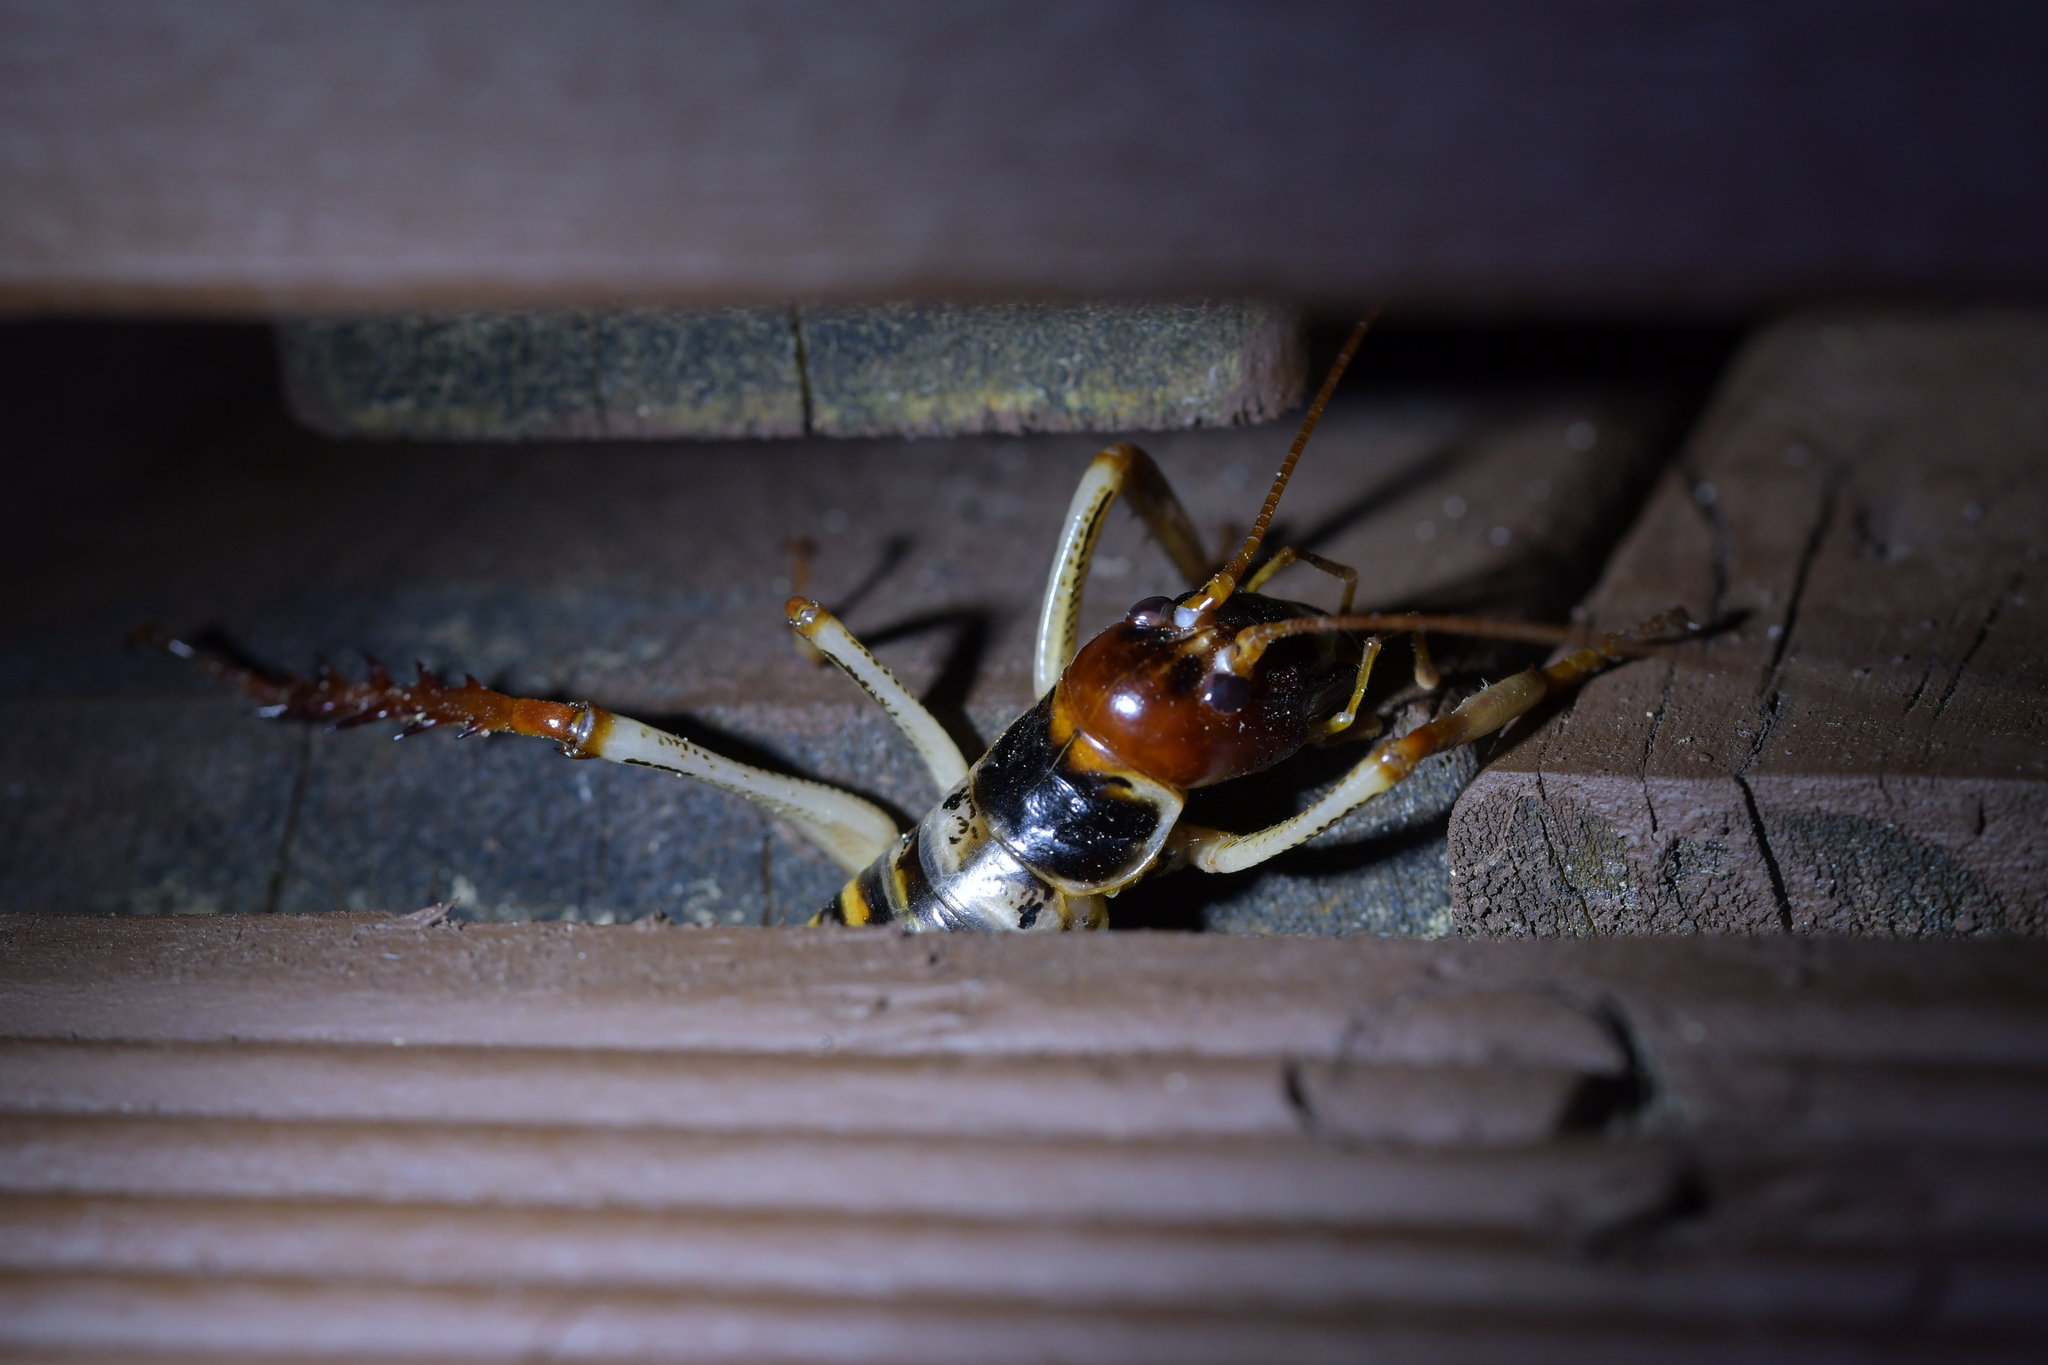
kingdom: Animalia
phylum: Arthropoda
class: Insecta
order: Orthoptera
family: Anostostomatidae
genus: Hemideina
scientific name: Hemideina crassidens
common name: Wellington tree weta
